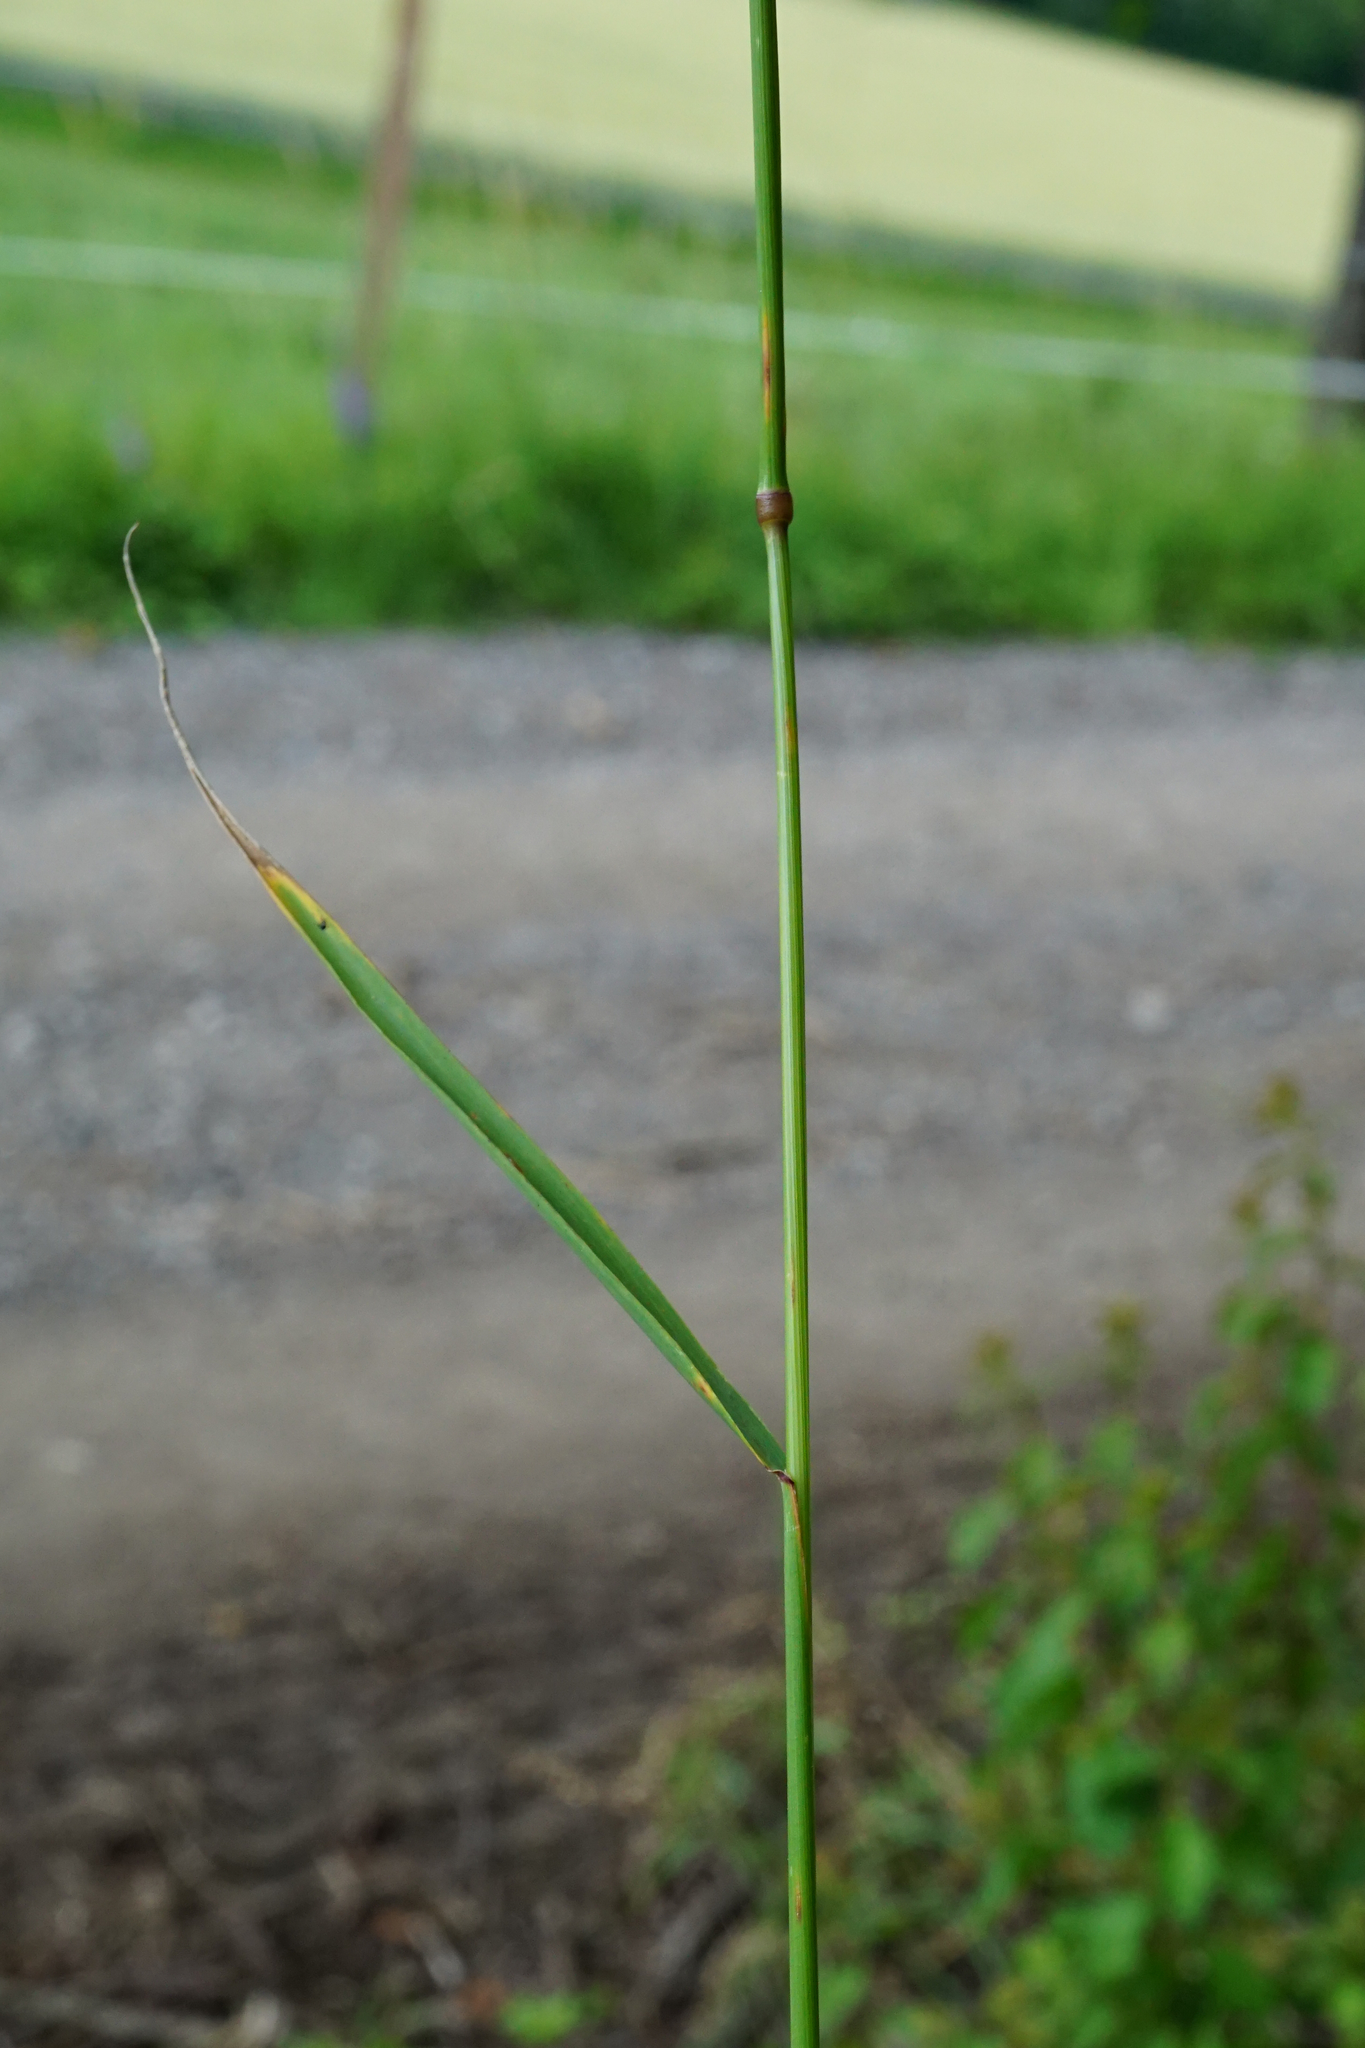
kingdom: Plantae
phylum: Tracheophyta
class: Liliopsida
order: Poales
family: Poaceae
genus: Arrhenatherum
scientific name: Arrhenatherum elatius
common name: Tall oatgrass
